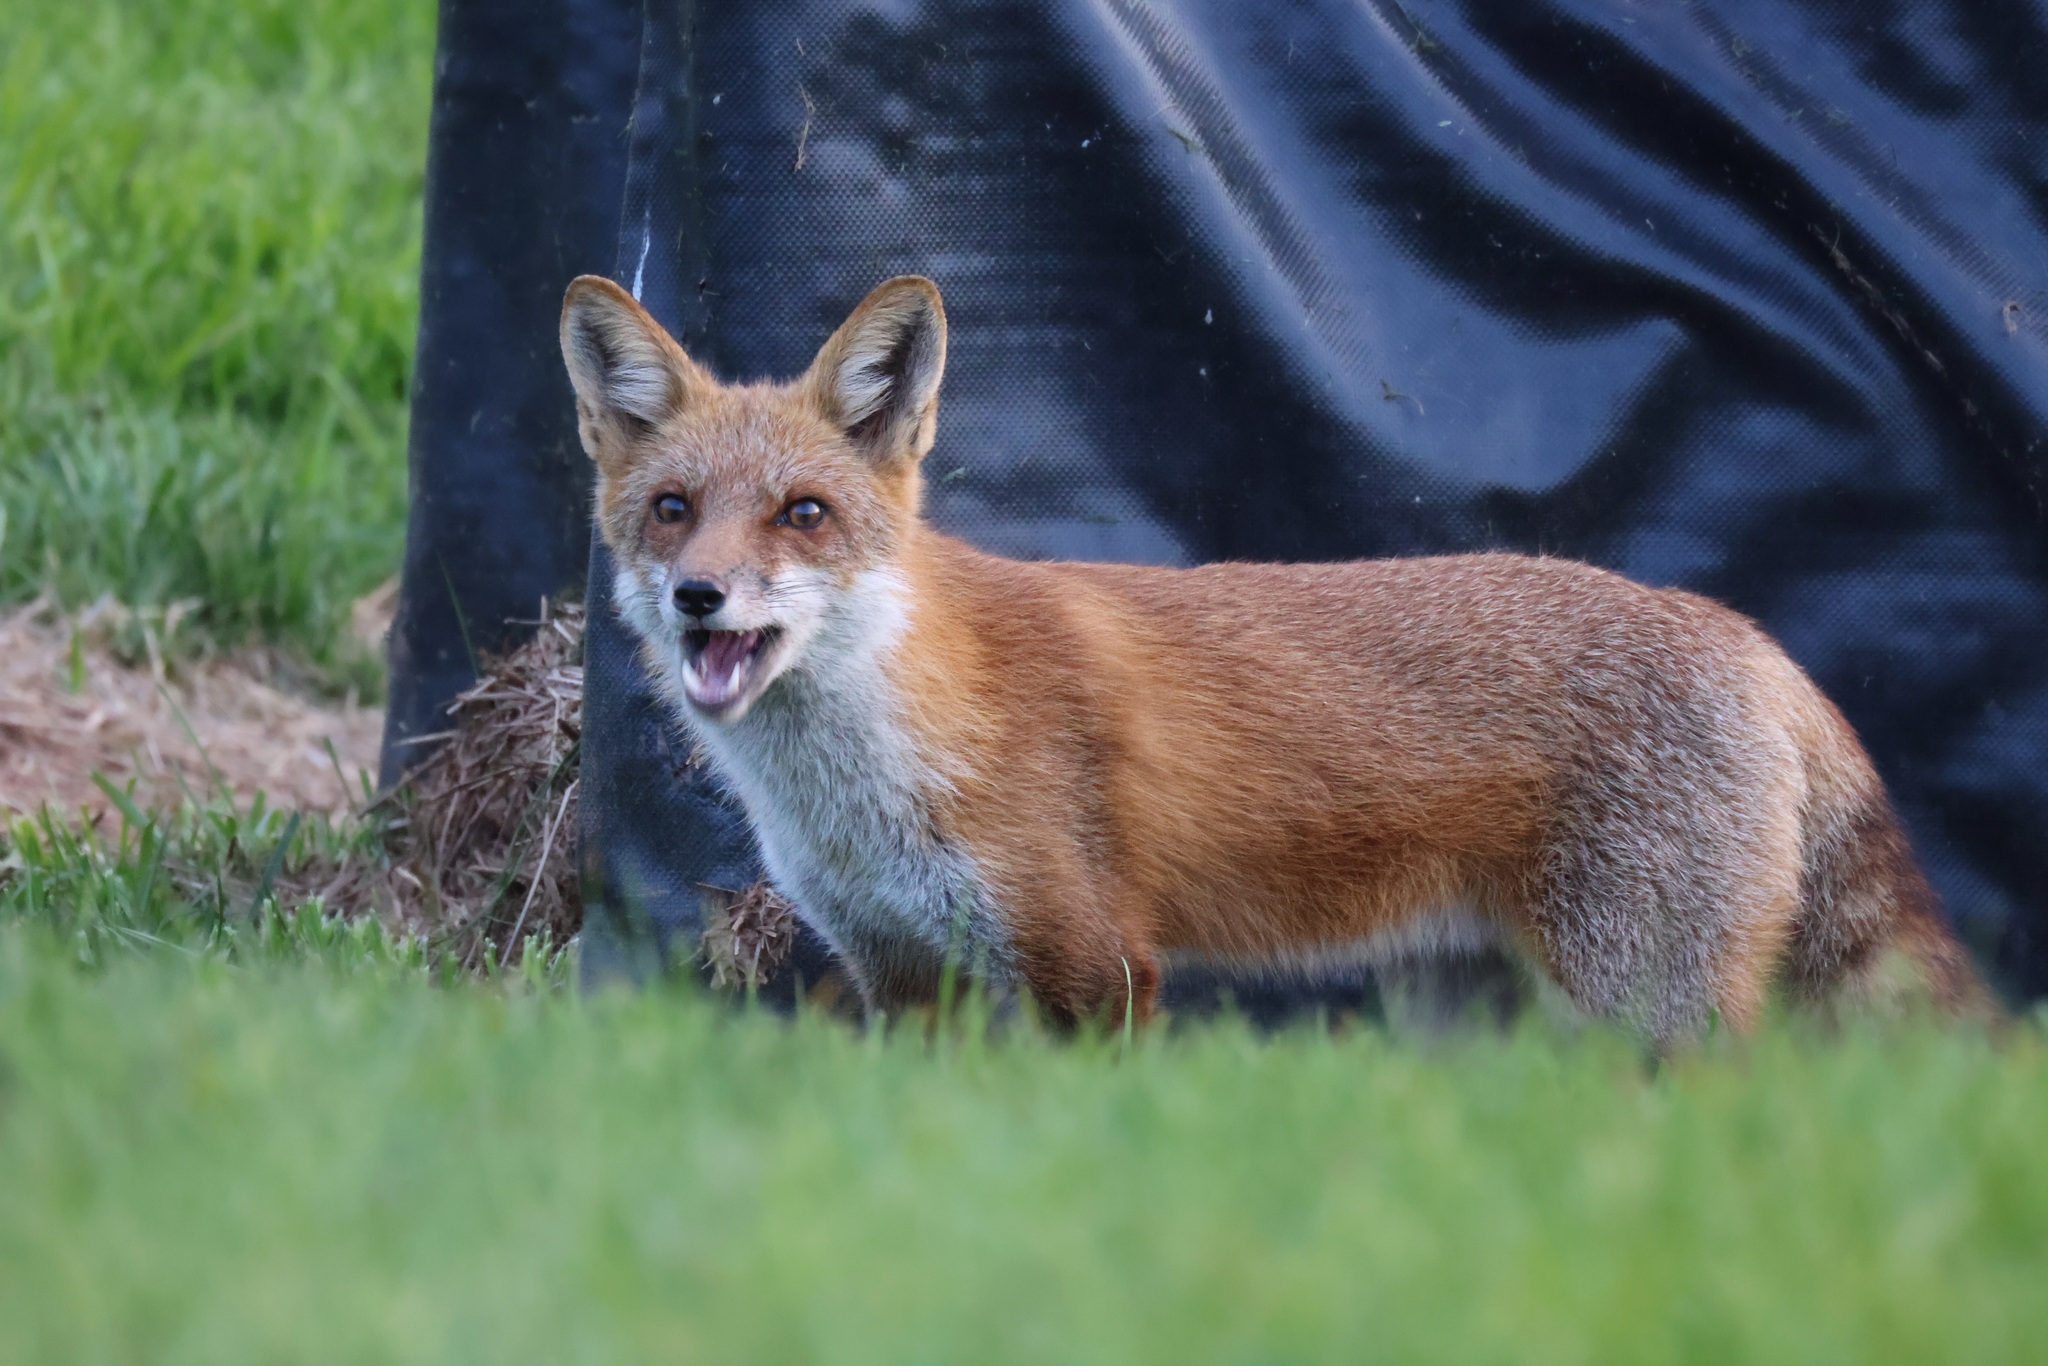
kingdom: Animalia
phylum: Chordata
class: Mammalia
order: Carnivora
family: Canidae
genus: Vulpes
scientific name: Vulpes vulpes
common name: Red fox
